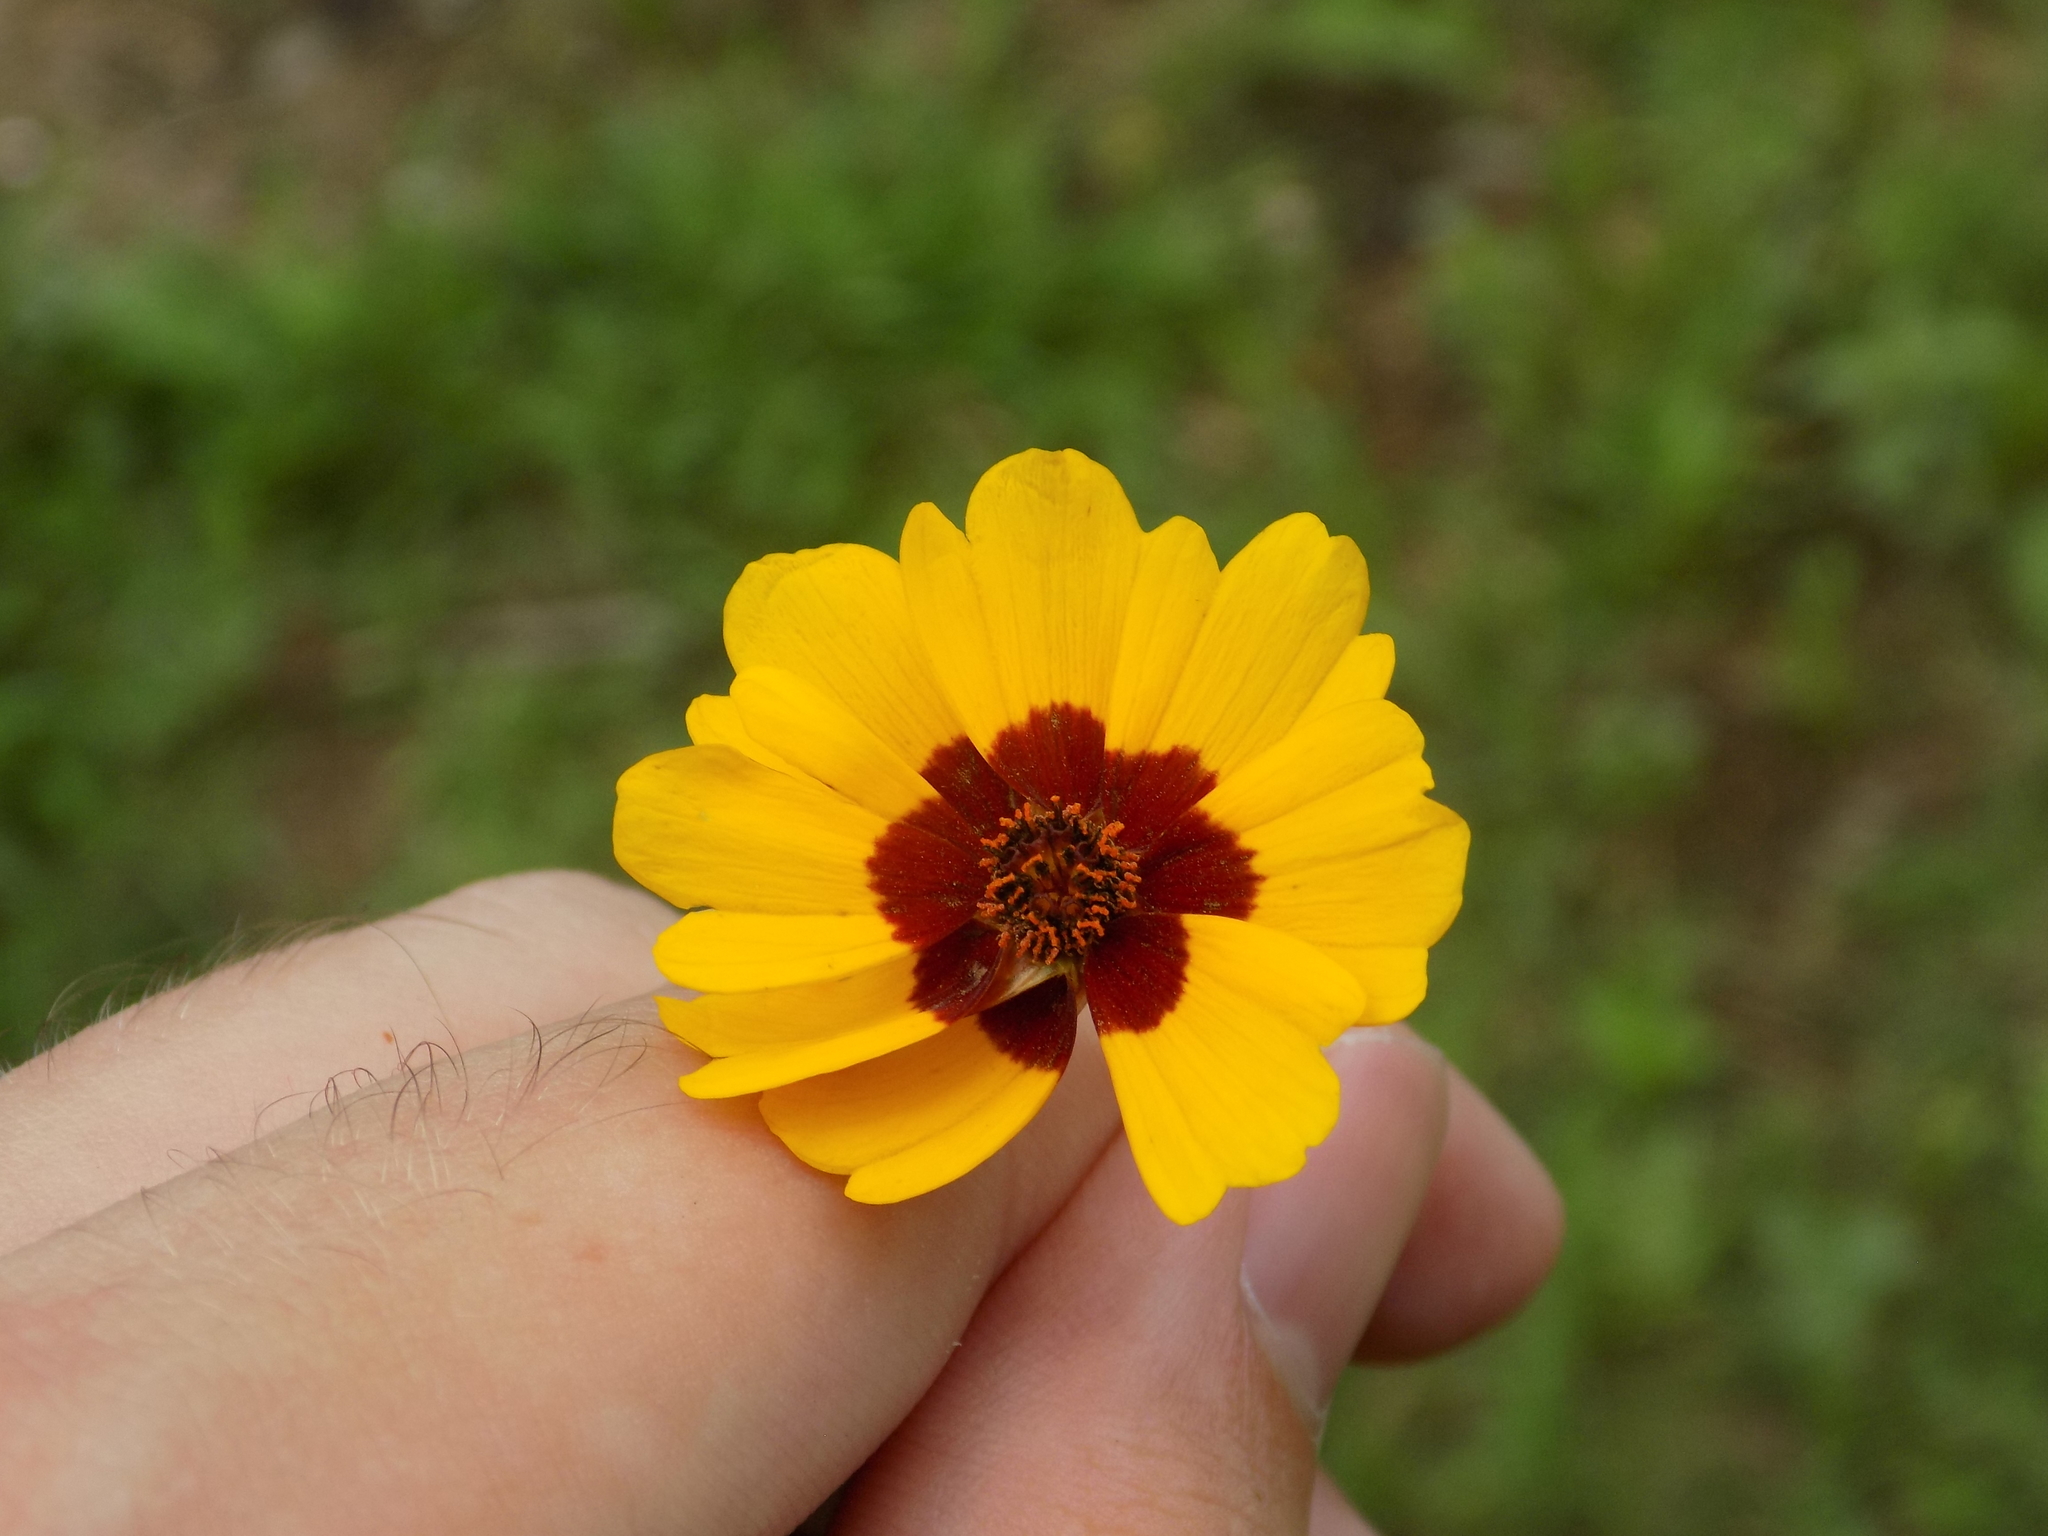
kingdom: Plantae
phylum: Tracheophyta
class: Magnoliopsida
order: Asterales
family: Asteraceae
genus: Coreopsis
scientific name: Coreopsis tinctoria
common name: Garden tickseed
